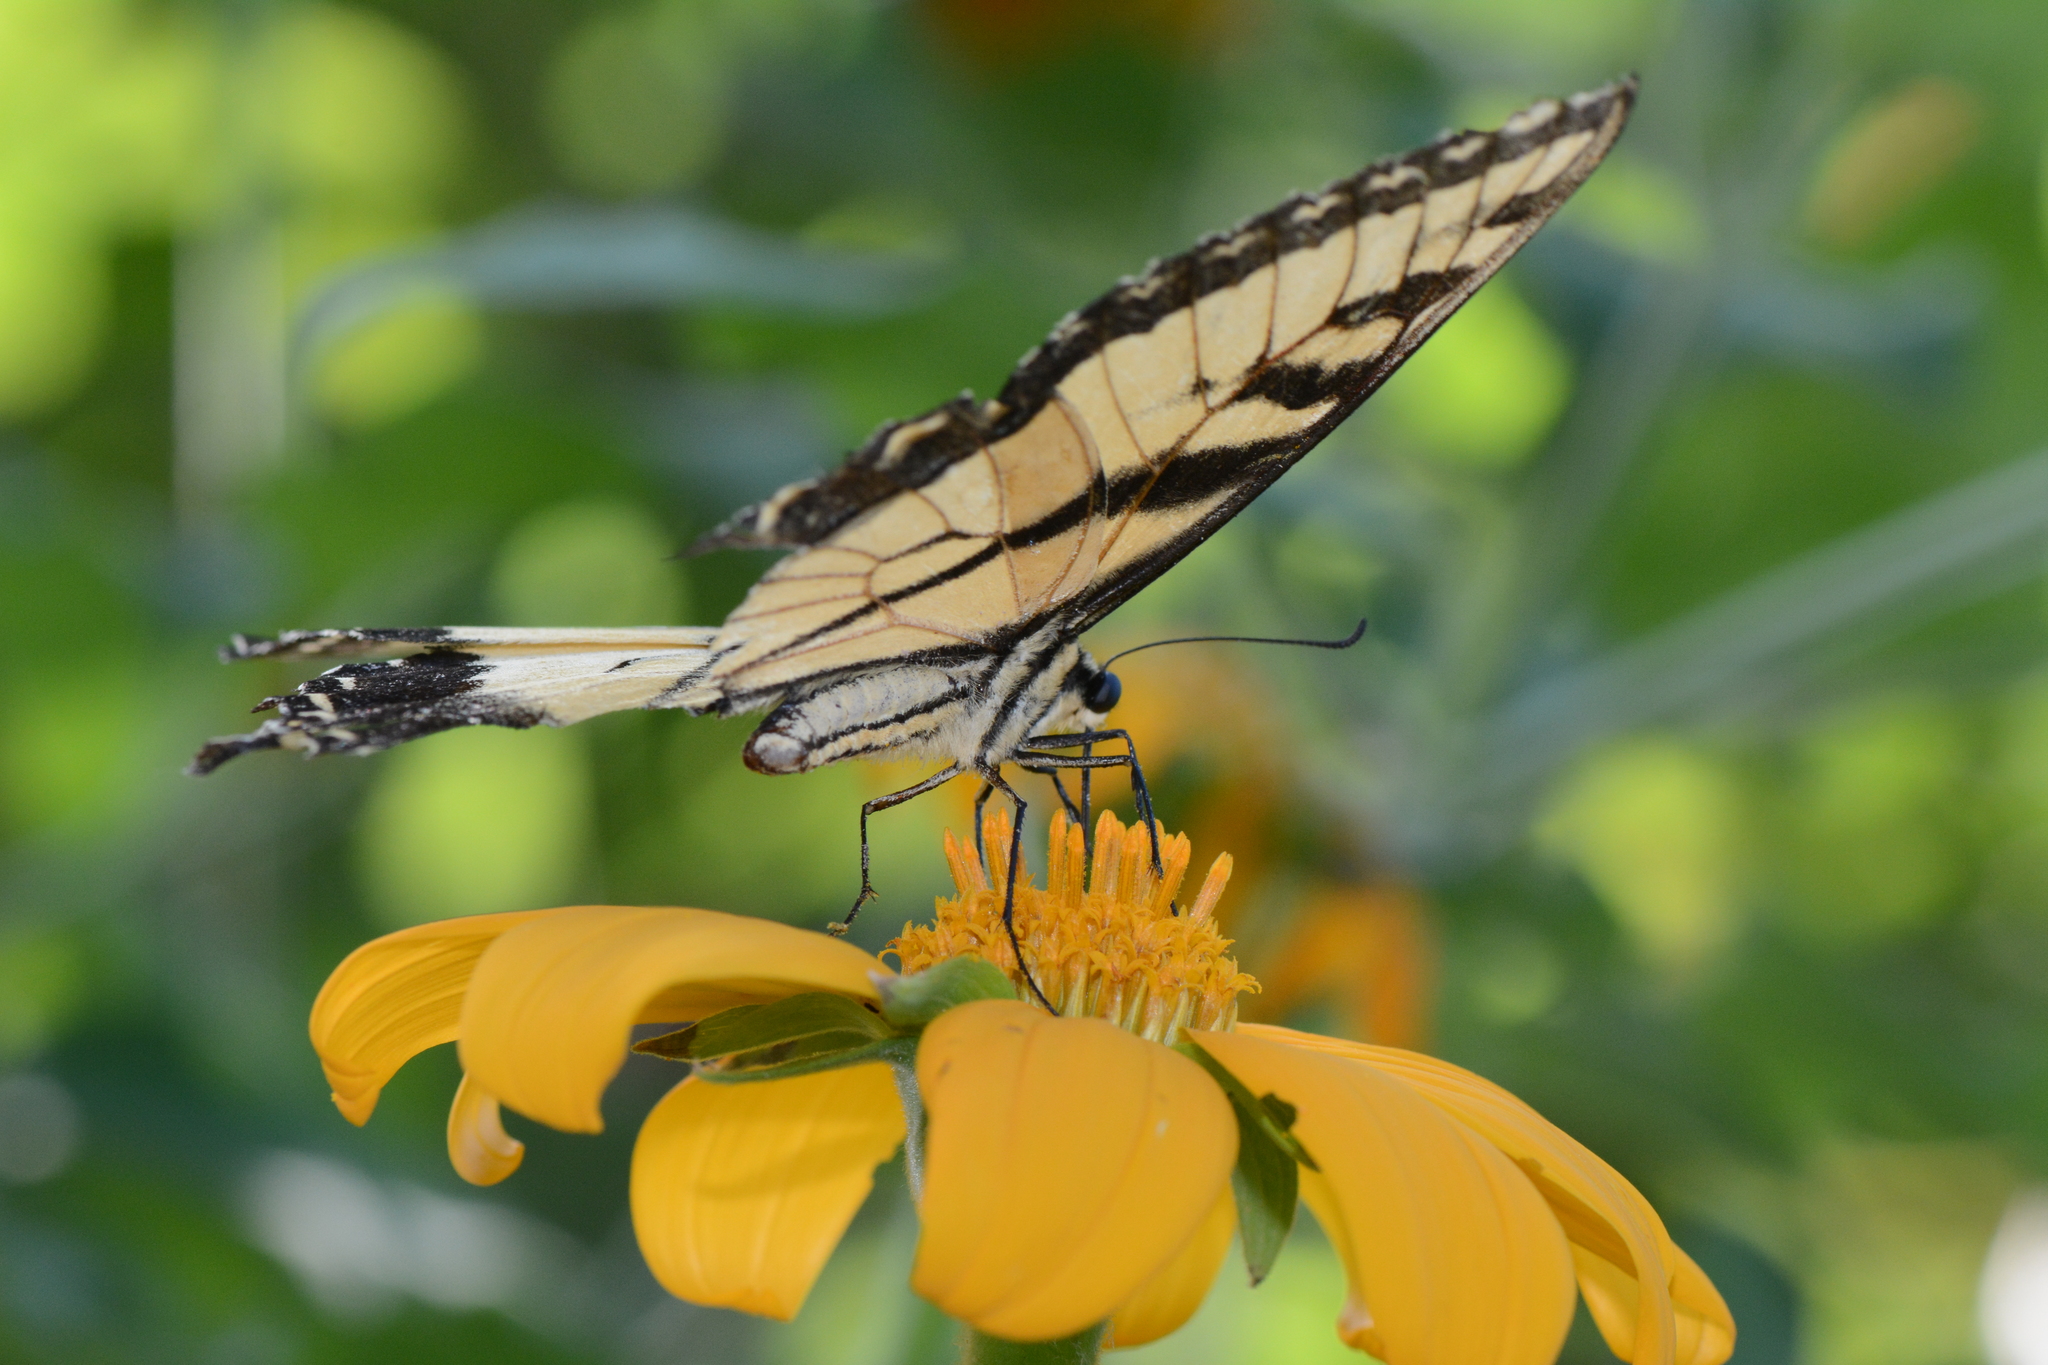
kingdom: Animalia
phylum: Arthropoda
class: Insecta
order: Lepidoptera
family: Papilionidae
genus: Papilio
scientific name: Papilio glaucus
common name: Tiger swallowtail
